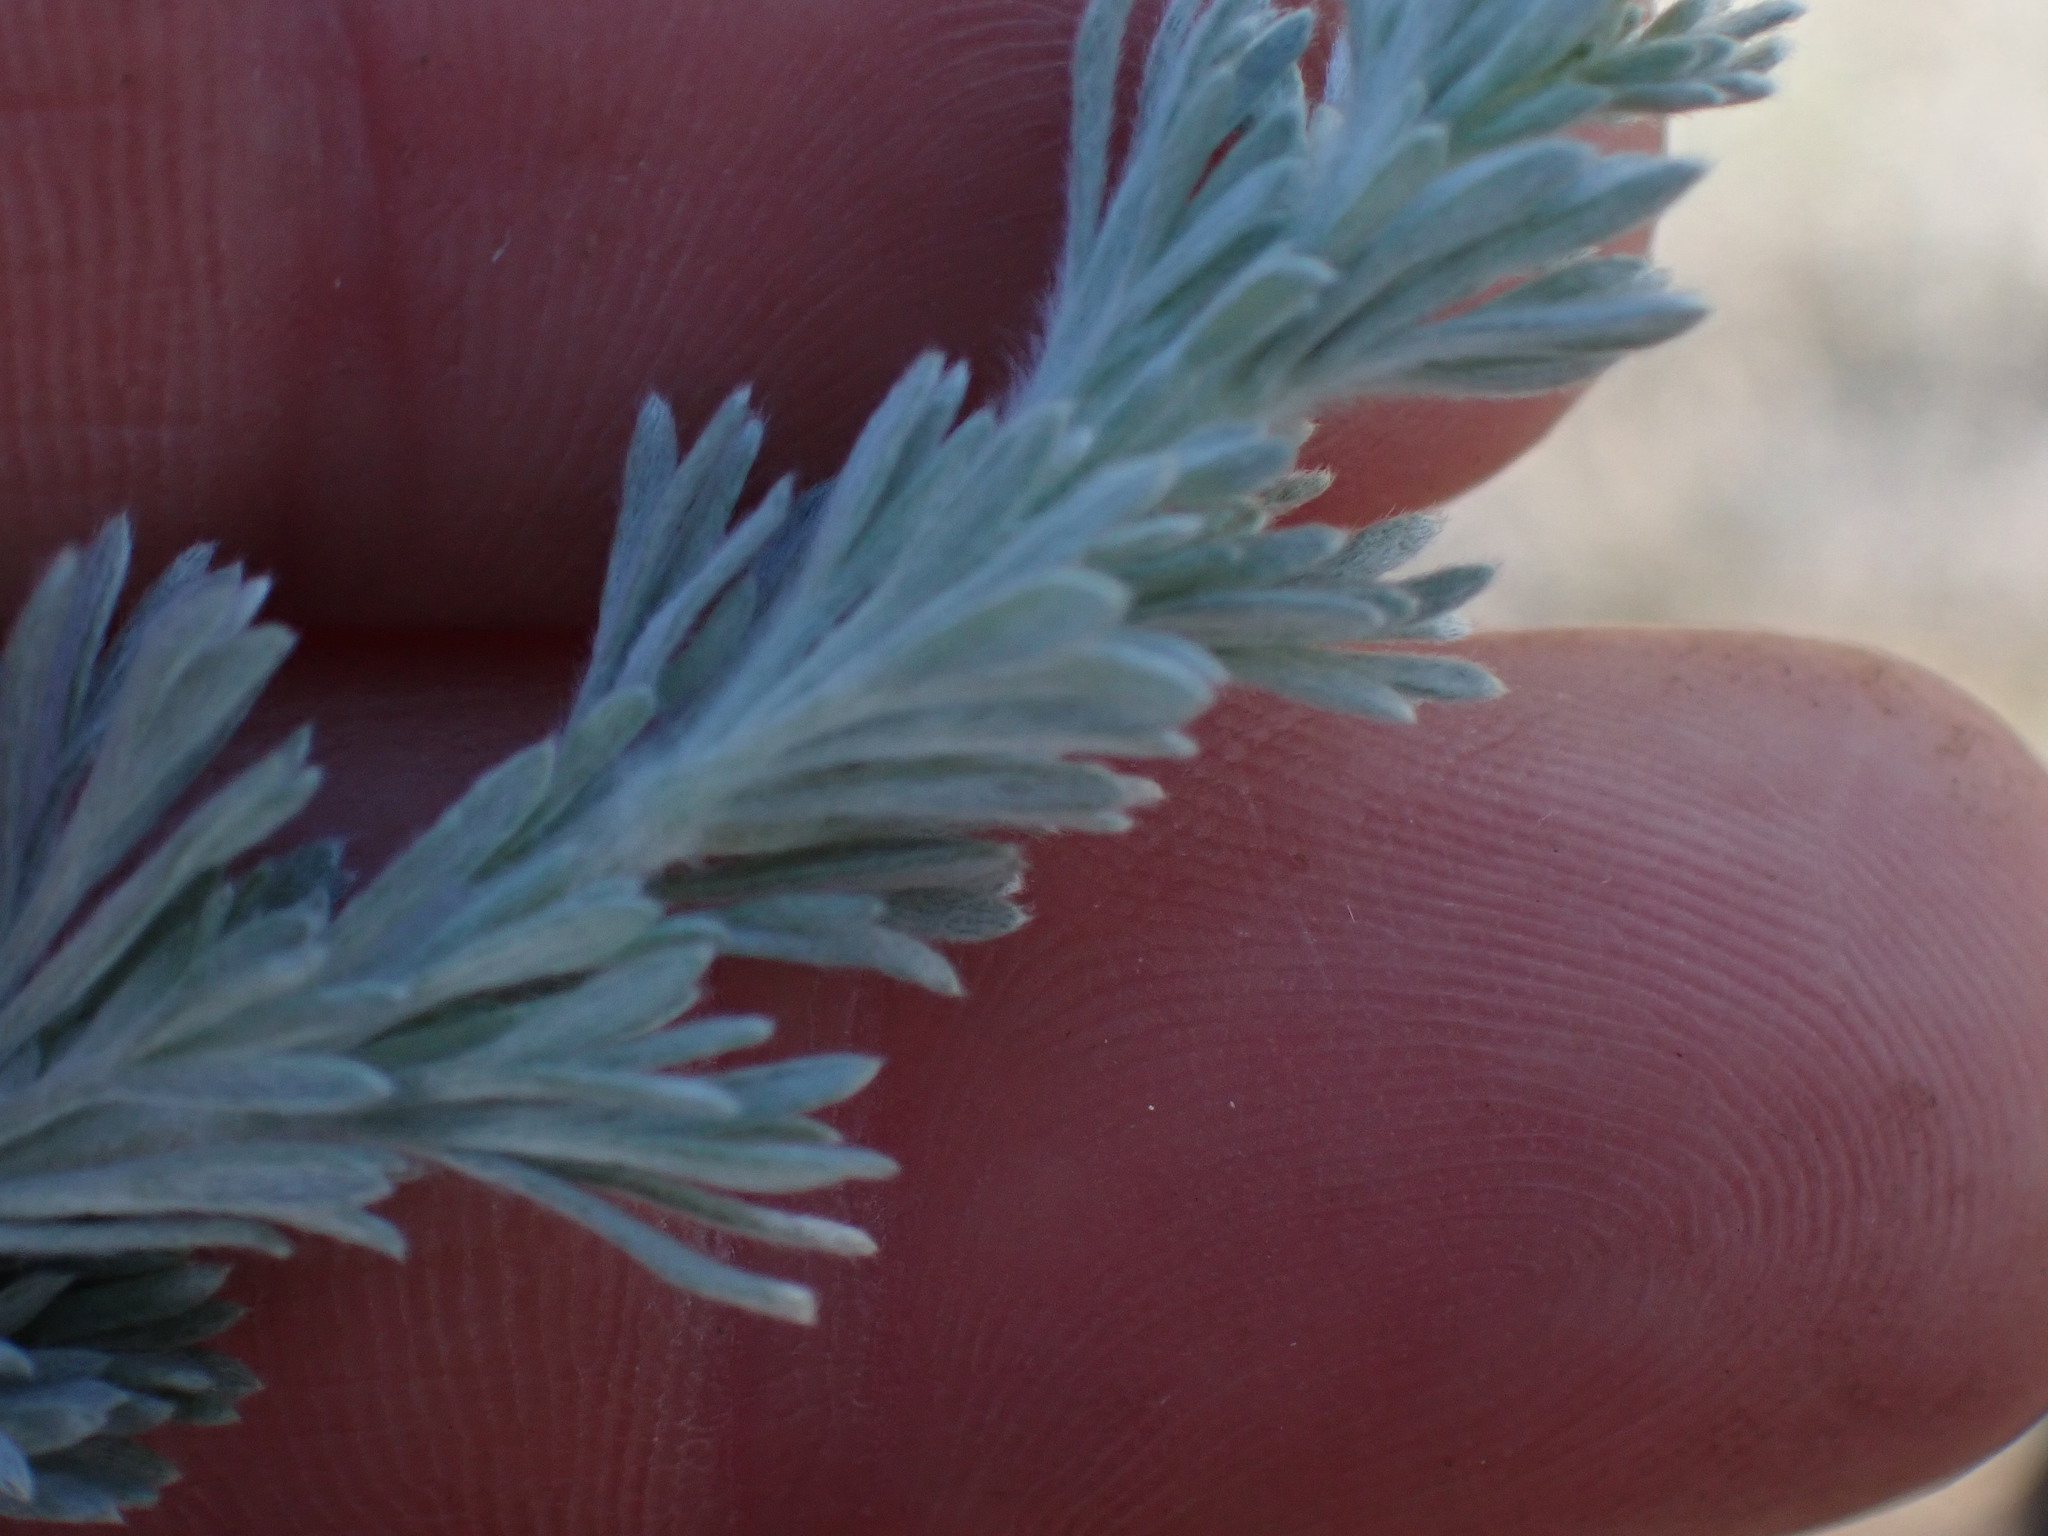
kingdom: Plantae
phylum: Tracheophyta
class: Magnoliopsida
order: Asterales
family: Asteraceae
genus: Artemisia
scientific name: Artemisia frigida
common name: Prairie sagewort
